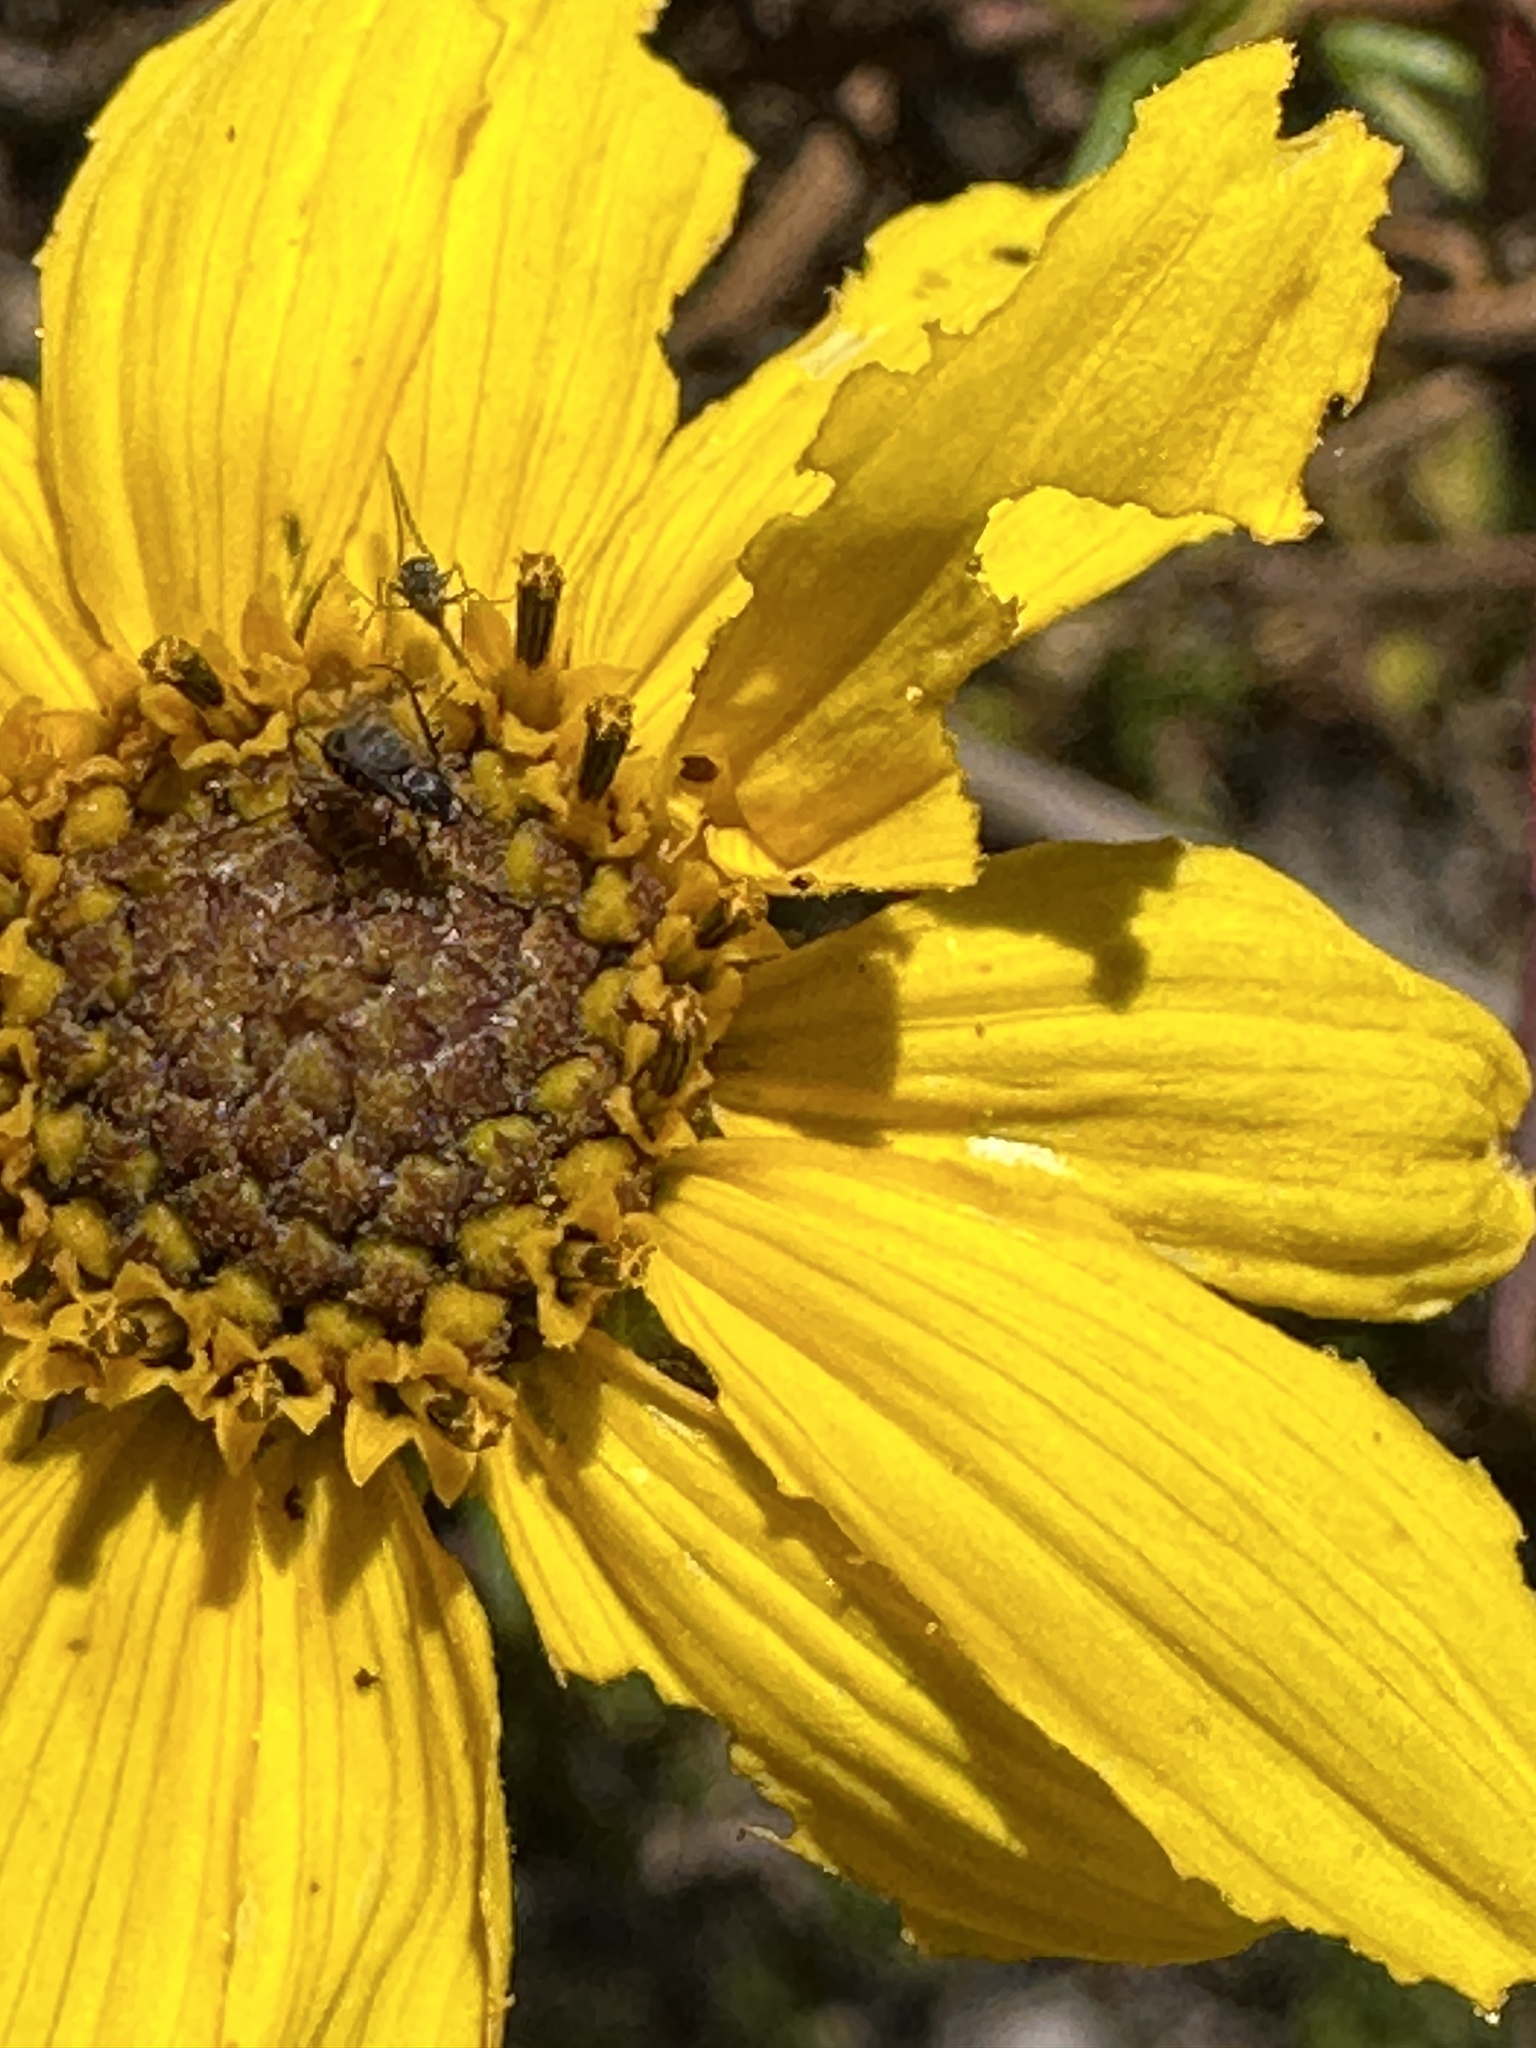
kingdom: Plantae
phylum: Tracheophyta
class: Magnoliopsida
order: Asterales
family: Asteraceae
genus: Encelia
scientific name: Encelia californica
